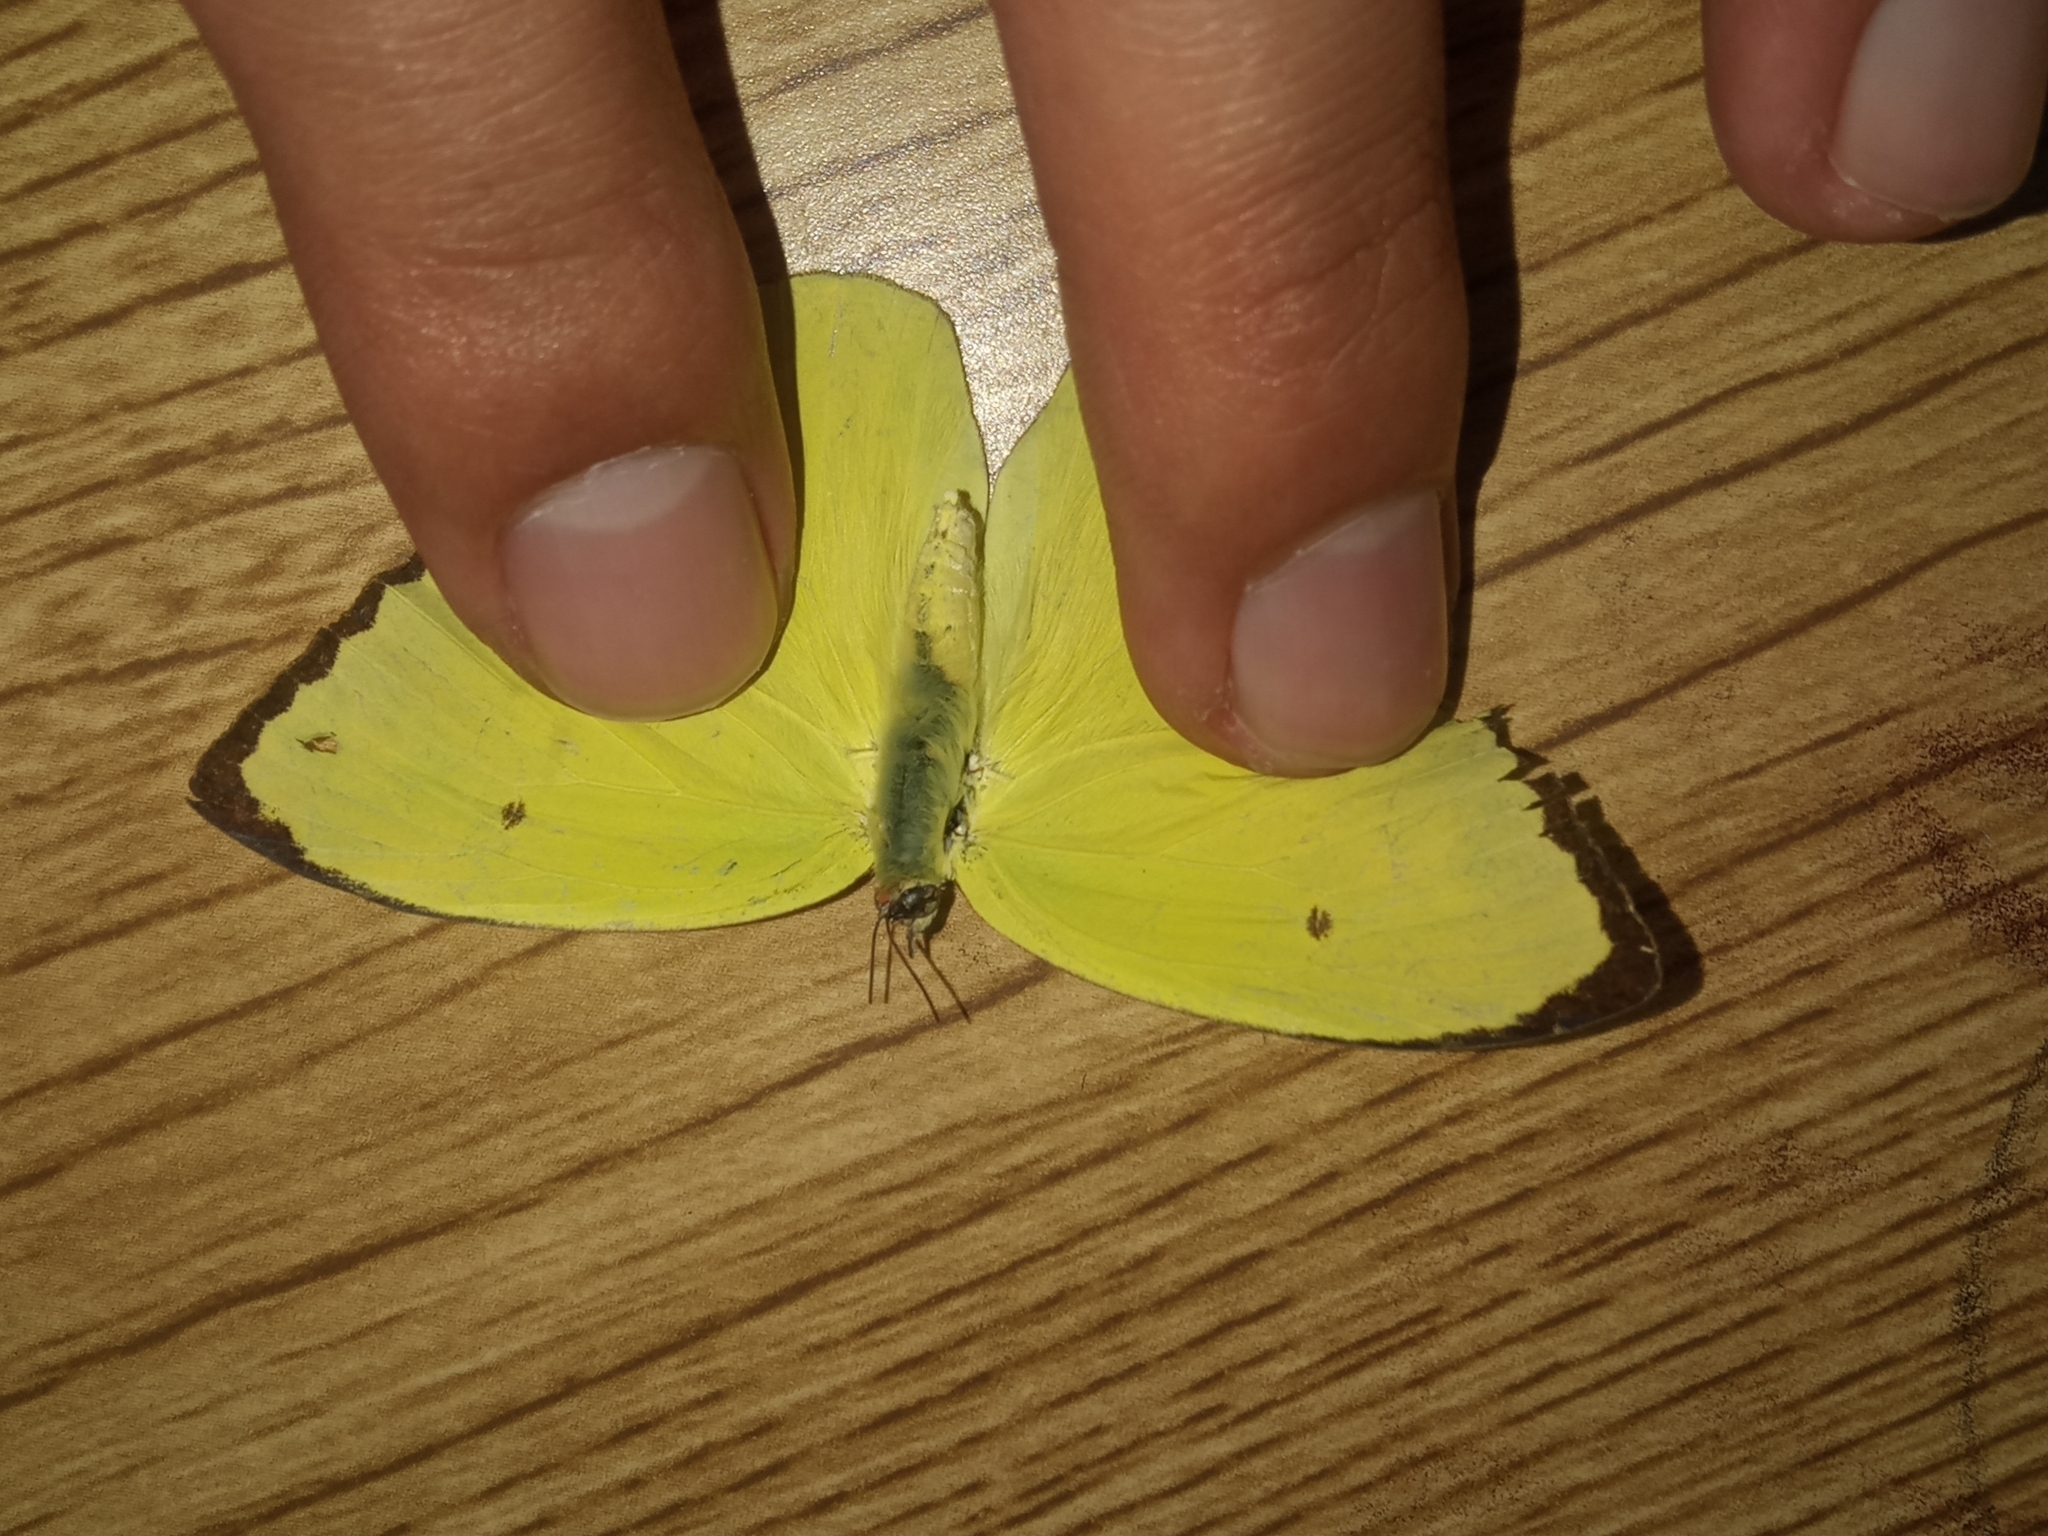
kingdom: Animalia
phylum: Arthropoda
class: Insecta
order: Lepidoptera
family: Pieridae
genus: Aphrissa
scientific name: Aphrissa statira
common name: Statira sulphur
